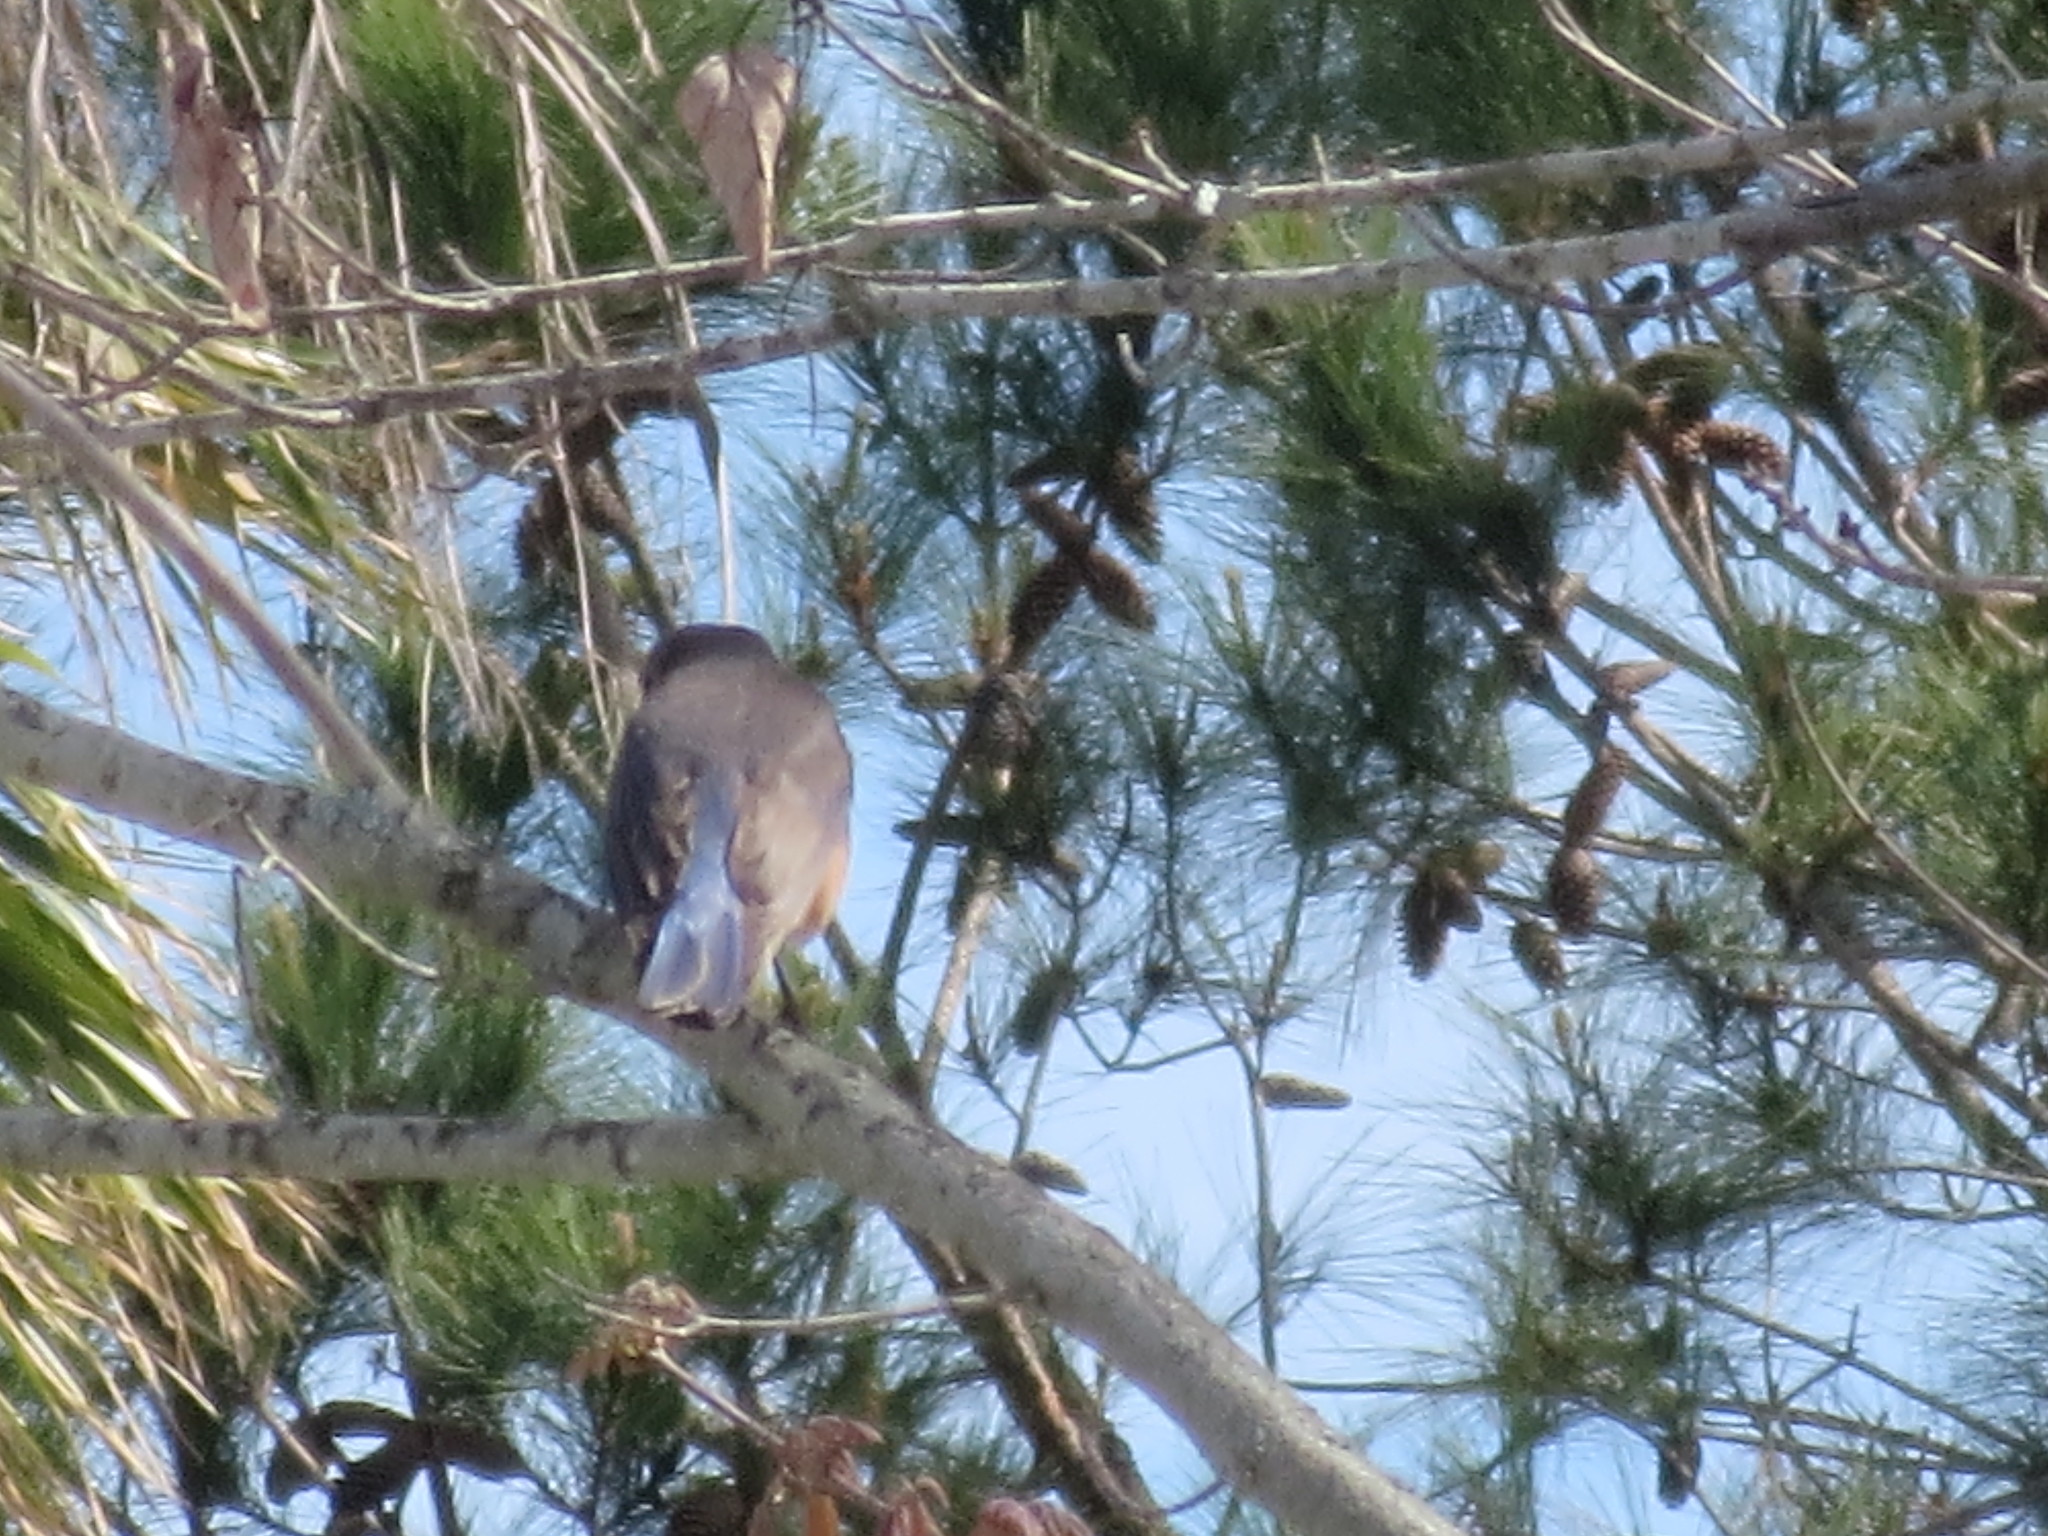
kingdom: Animalia
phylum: Chordata
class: Aves
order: Passeriformes
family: Turdidae
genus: Sialia
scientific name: Sialia sialis
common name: Eastern bluebird
